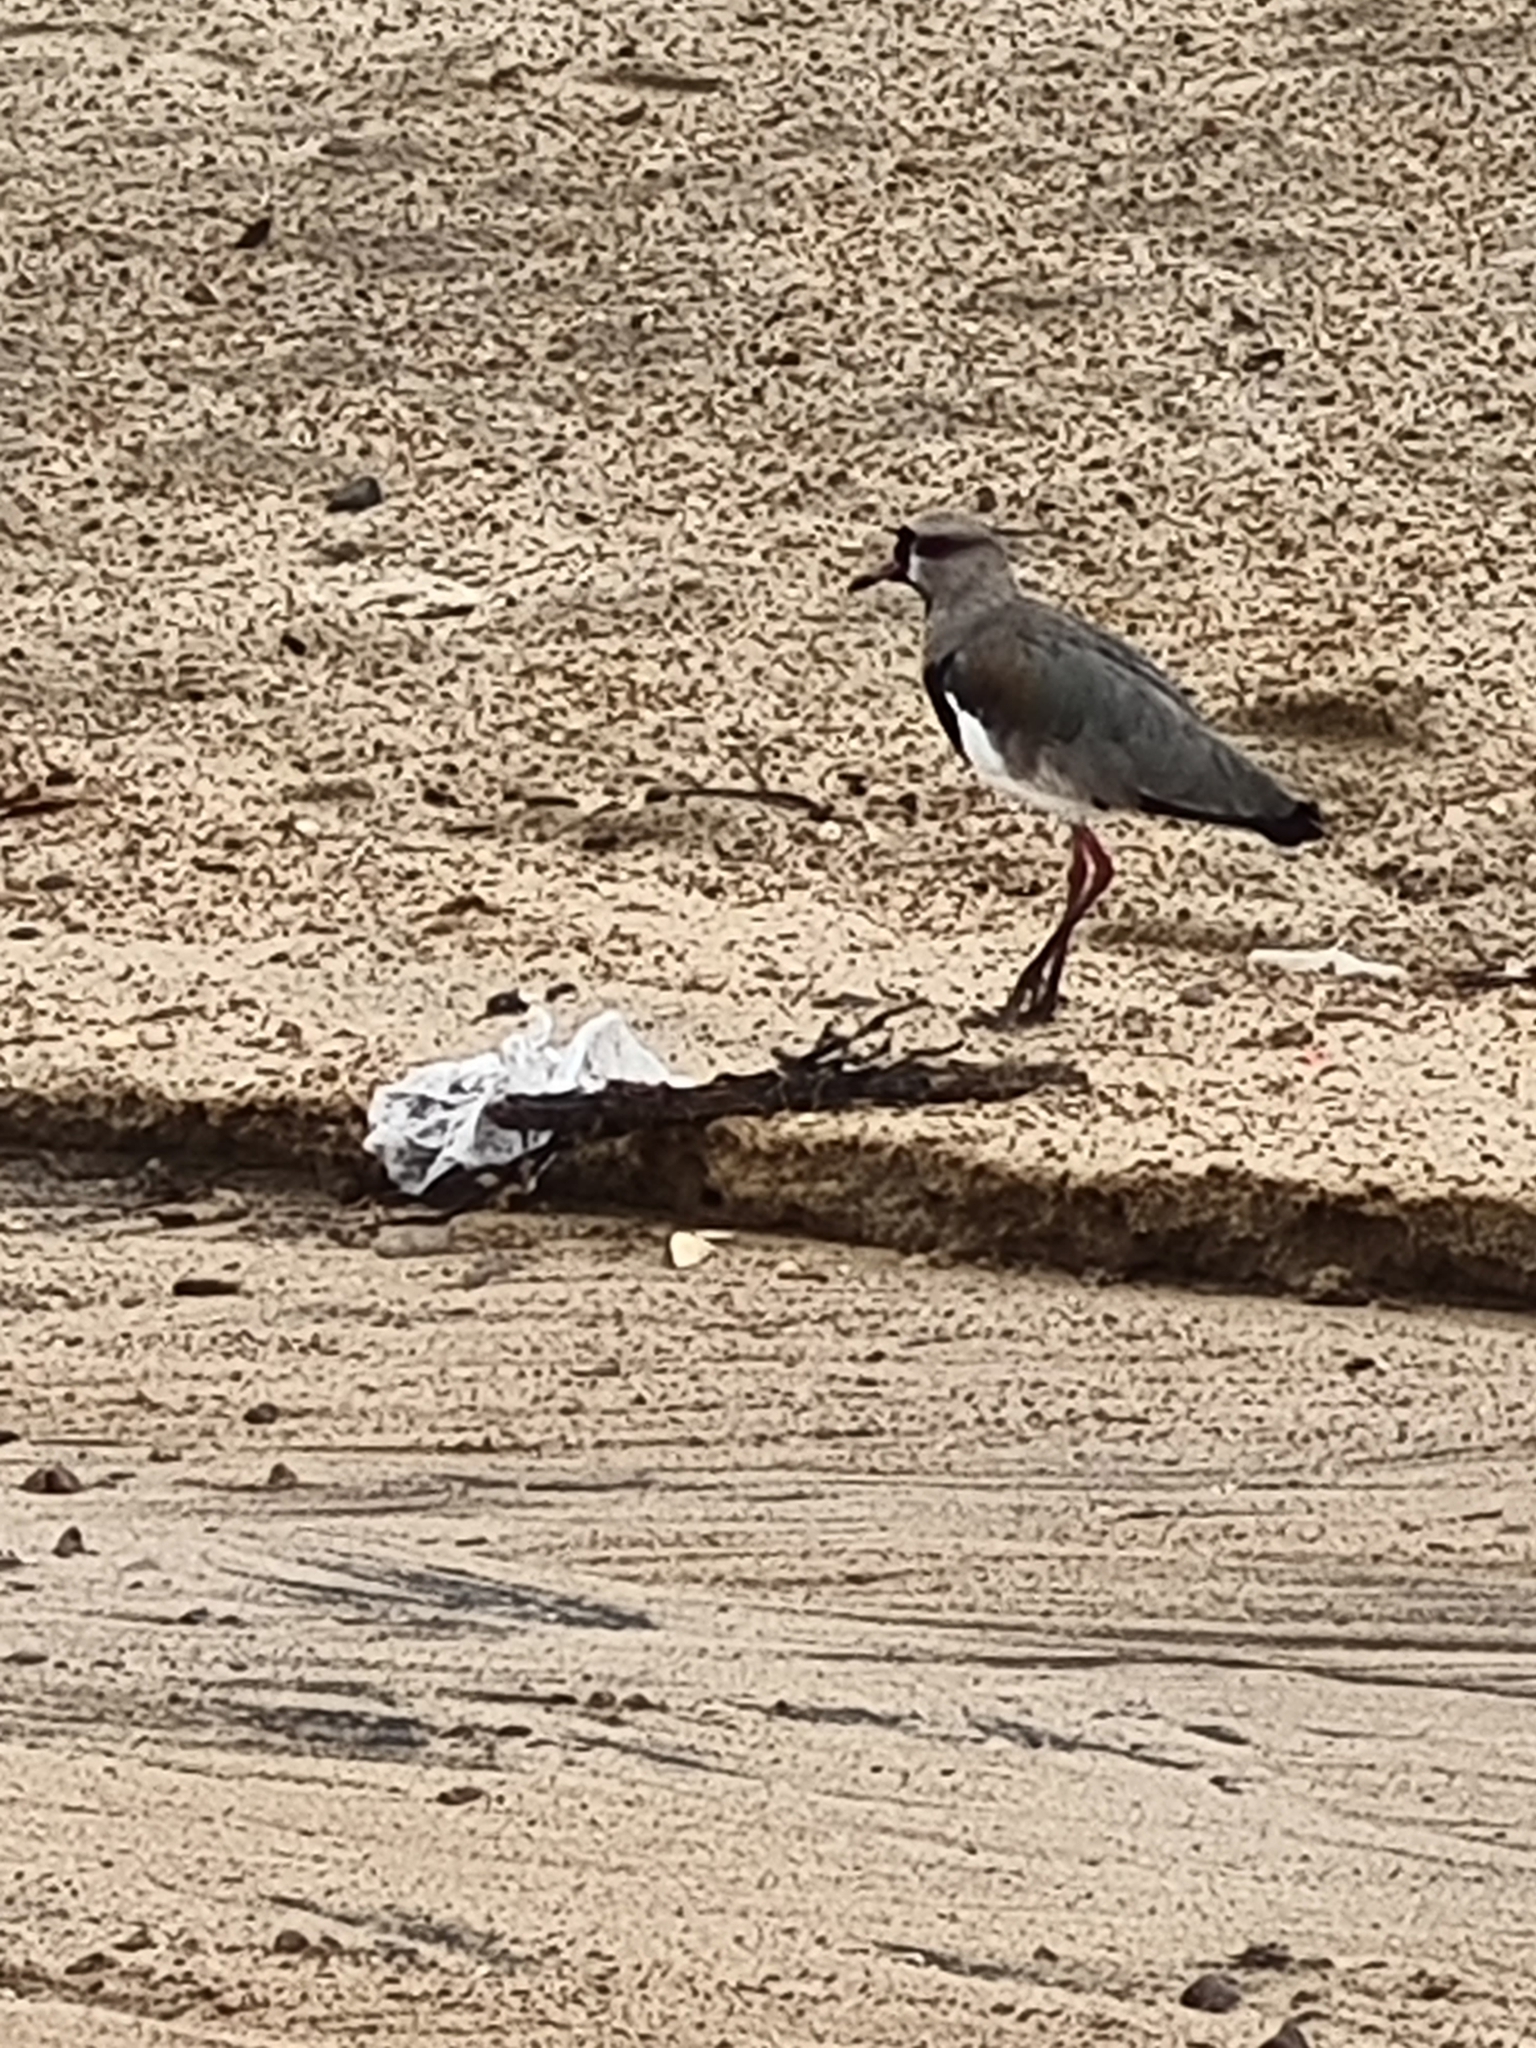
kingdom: Animalia
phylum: Chordata
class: Aves
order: Charadriiformes
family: Charadriidae
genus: Vanellus
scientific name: Vanellus chilensis
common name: Southern lapwing
